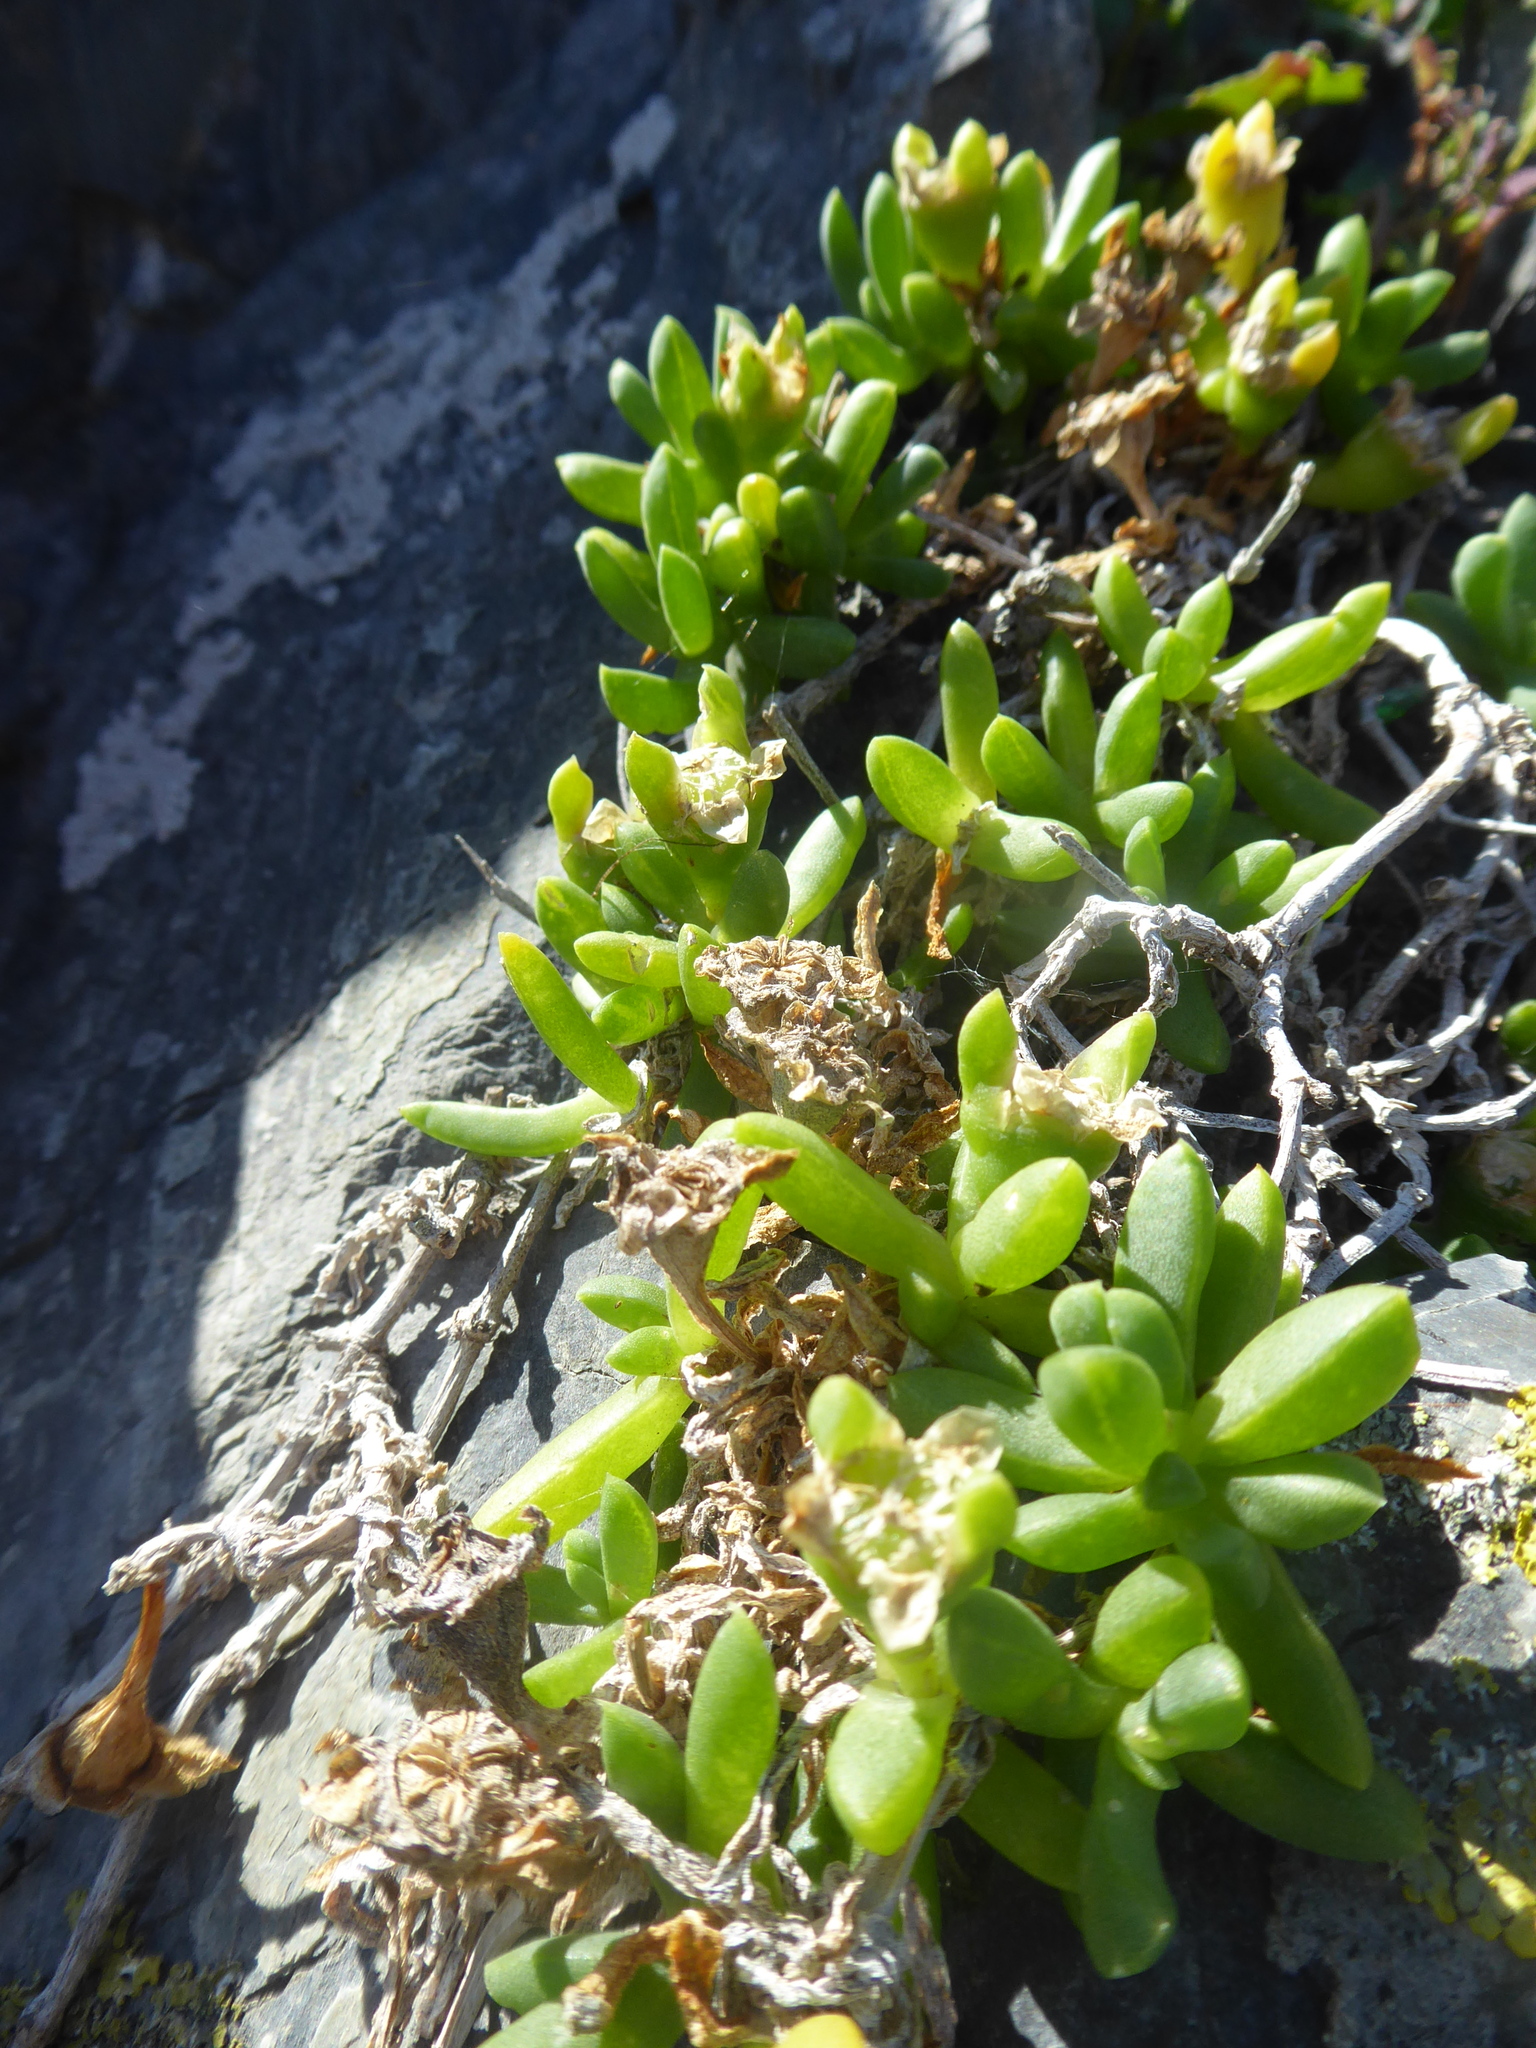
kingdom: Plantae
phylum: Tracheophyta
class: Magnoliopsida
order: Caryophyllales
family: Aizoaceae
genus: Disphyma
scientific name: Disphyma australe
